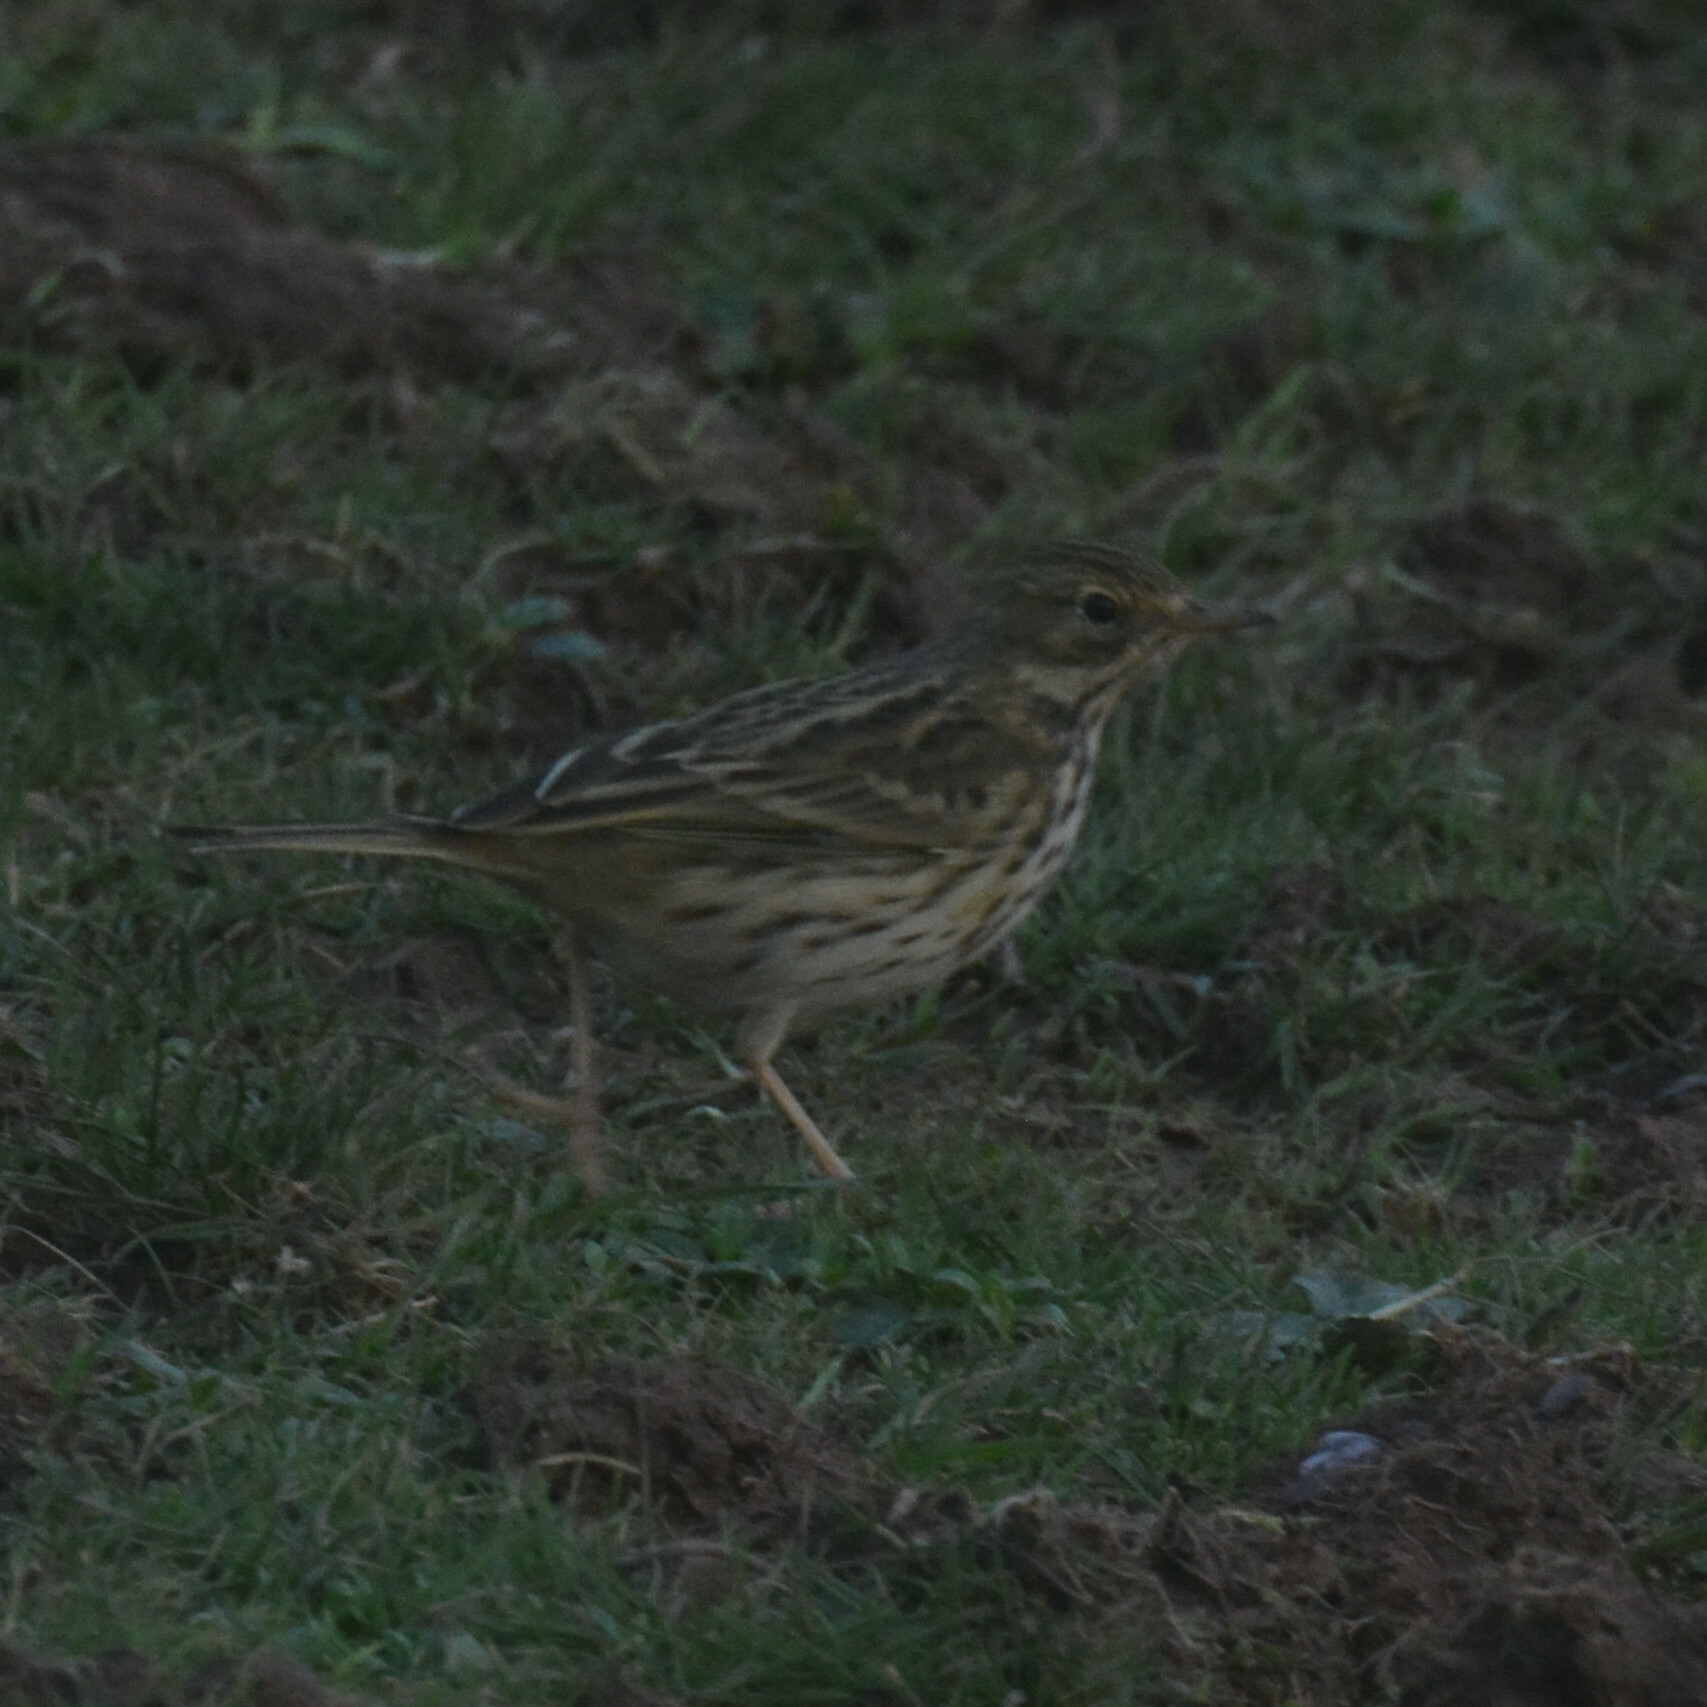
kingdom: Animalia
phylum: Chordata
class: Aves
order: Passeriformes
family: Motacillidae
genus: Anthus
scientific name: Anthus pratensis
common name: Meadow pipit
